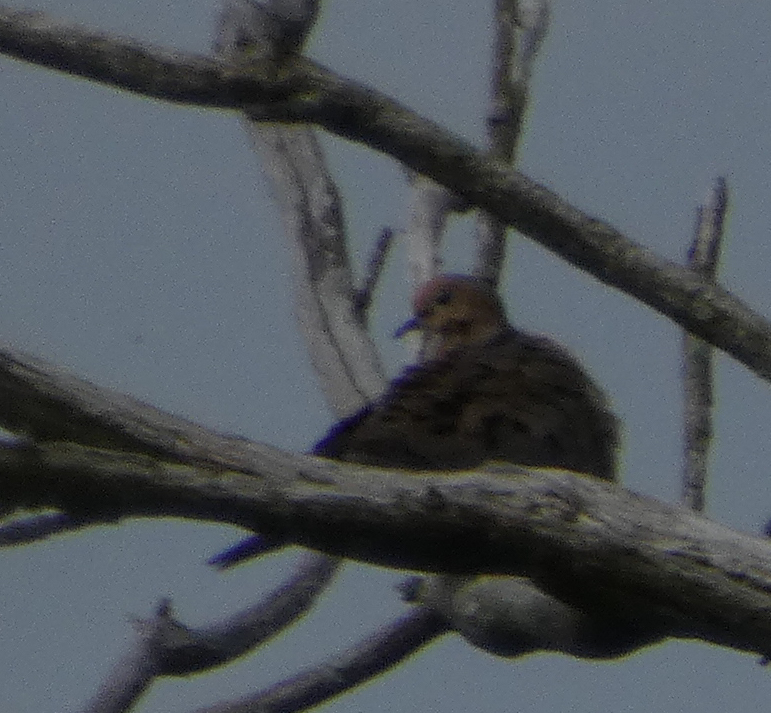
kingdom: Animalia
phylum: Chordata
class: Aves
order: Columbiformes
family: Columbidae
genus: Zenaida
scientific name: Zenaida macroura
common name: Mourning dove
